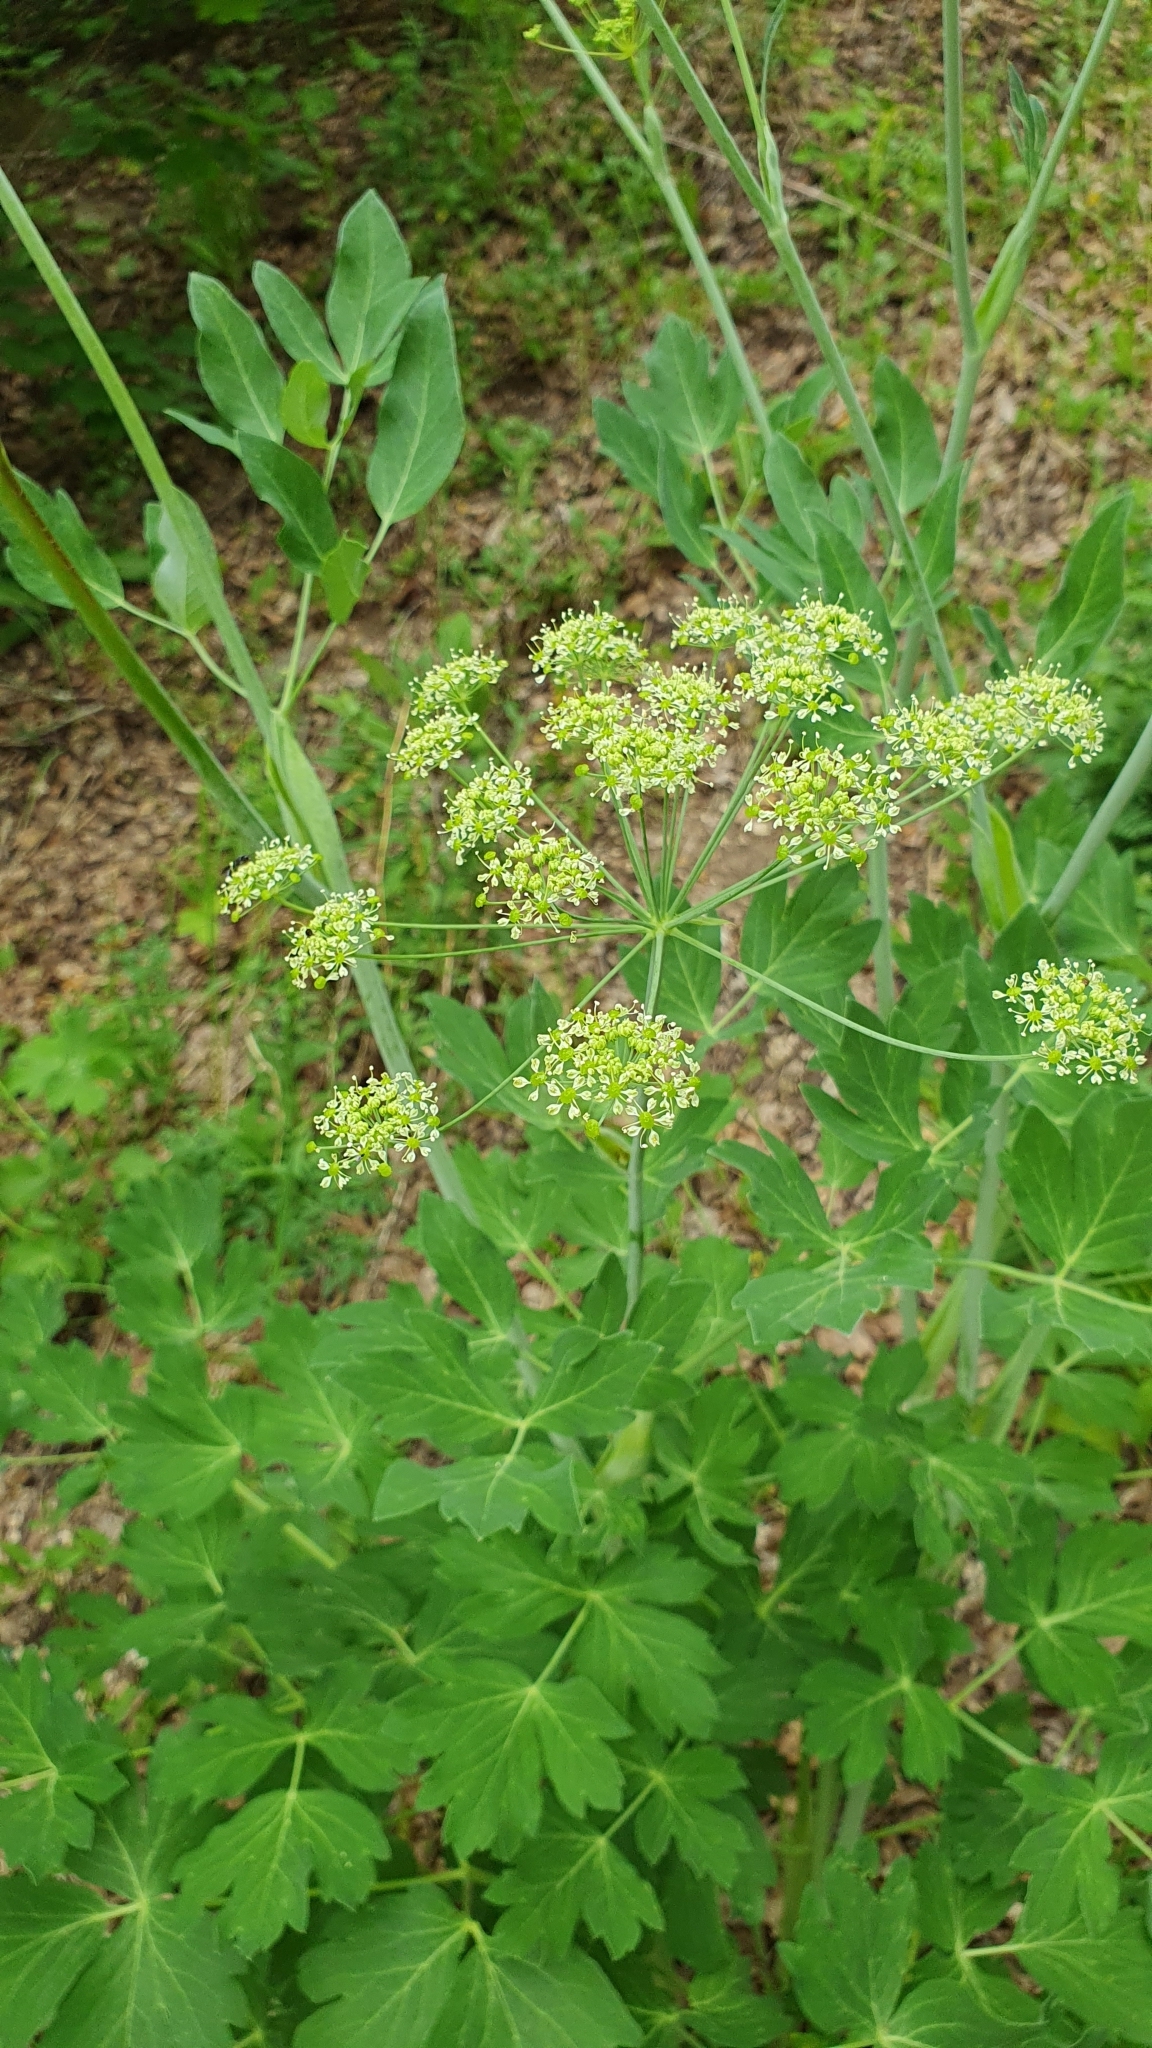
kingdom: Plantae
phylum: Tracheophyta
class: Magnoliopsida
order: Apiales
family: Apiaceae
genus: Laser
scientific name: Laser trilobum
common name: Laser
